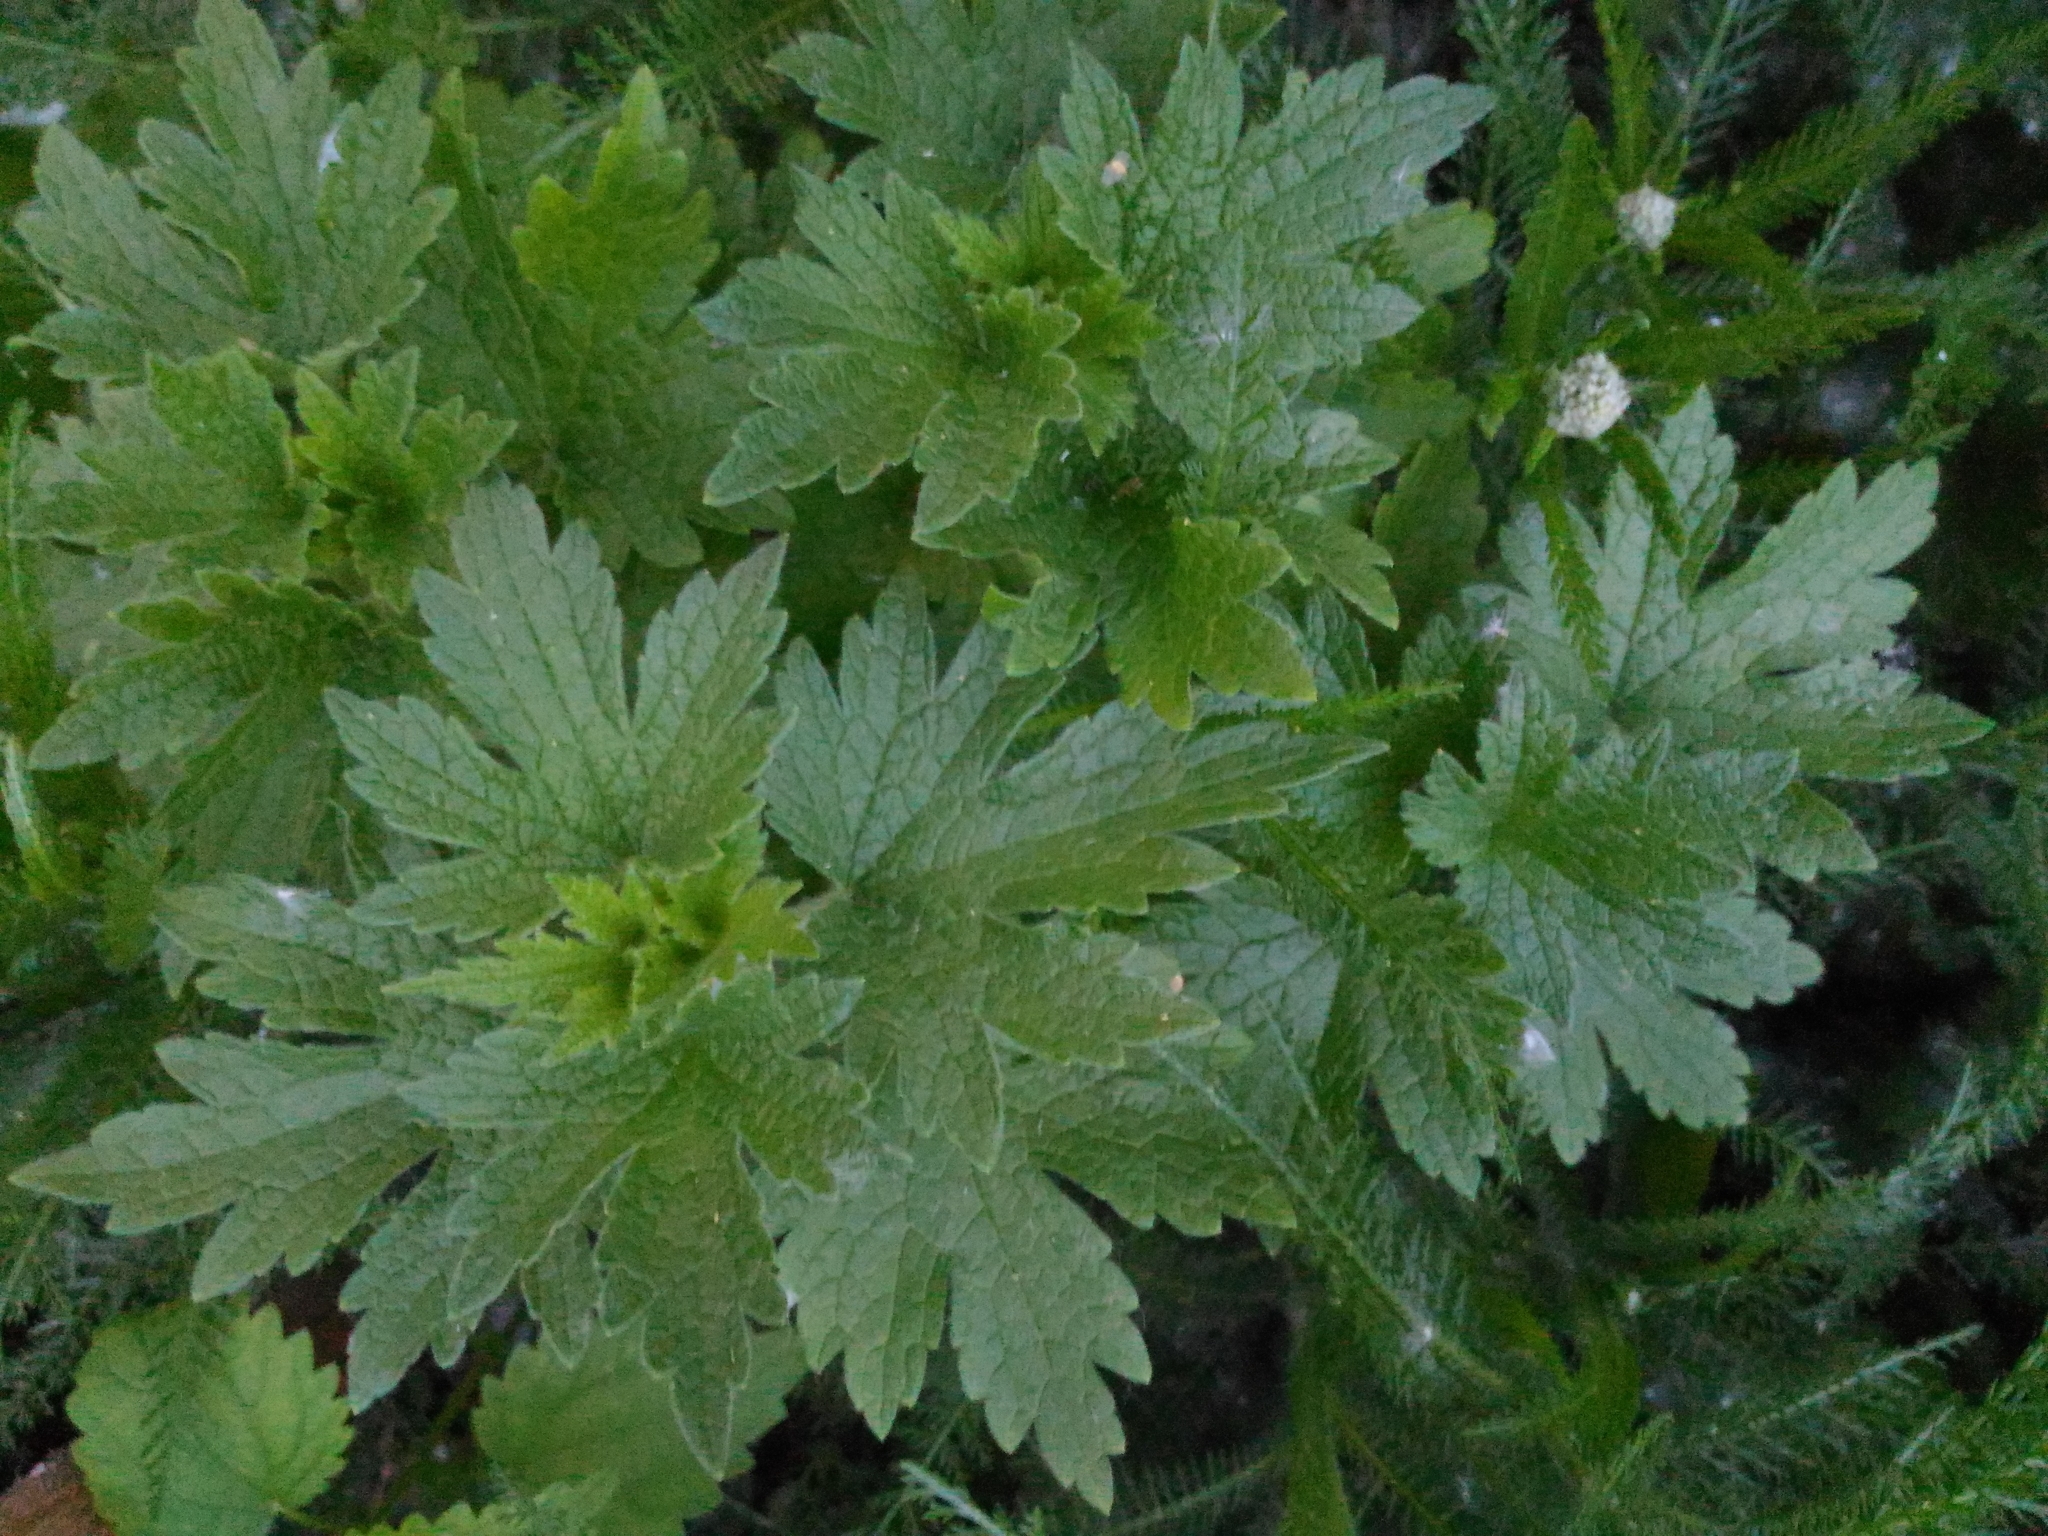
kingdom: Plantae
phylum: Tracheophyta
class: Magnoliopsida
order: Lamiales
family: Lamiaceae
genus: Leonurus
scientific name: Leonurus quinquelobatus
